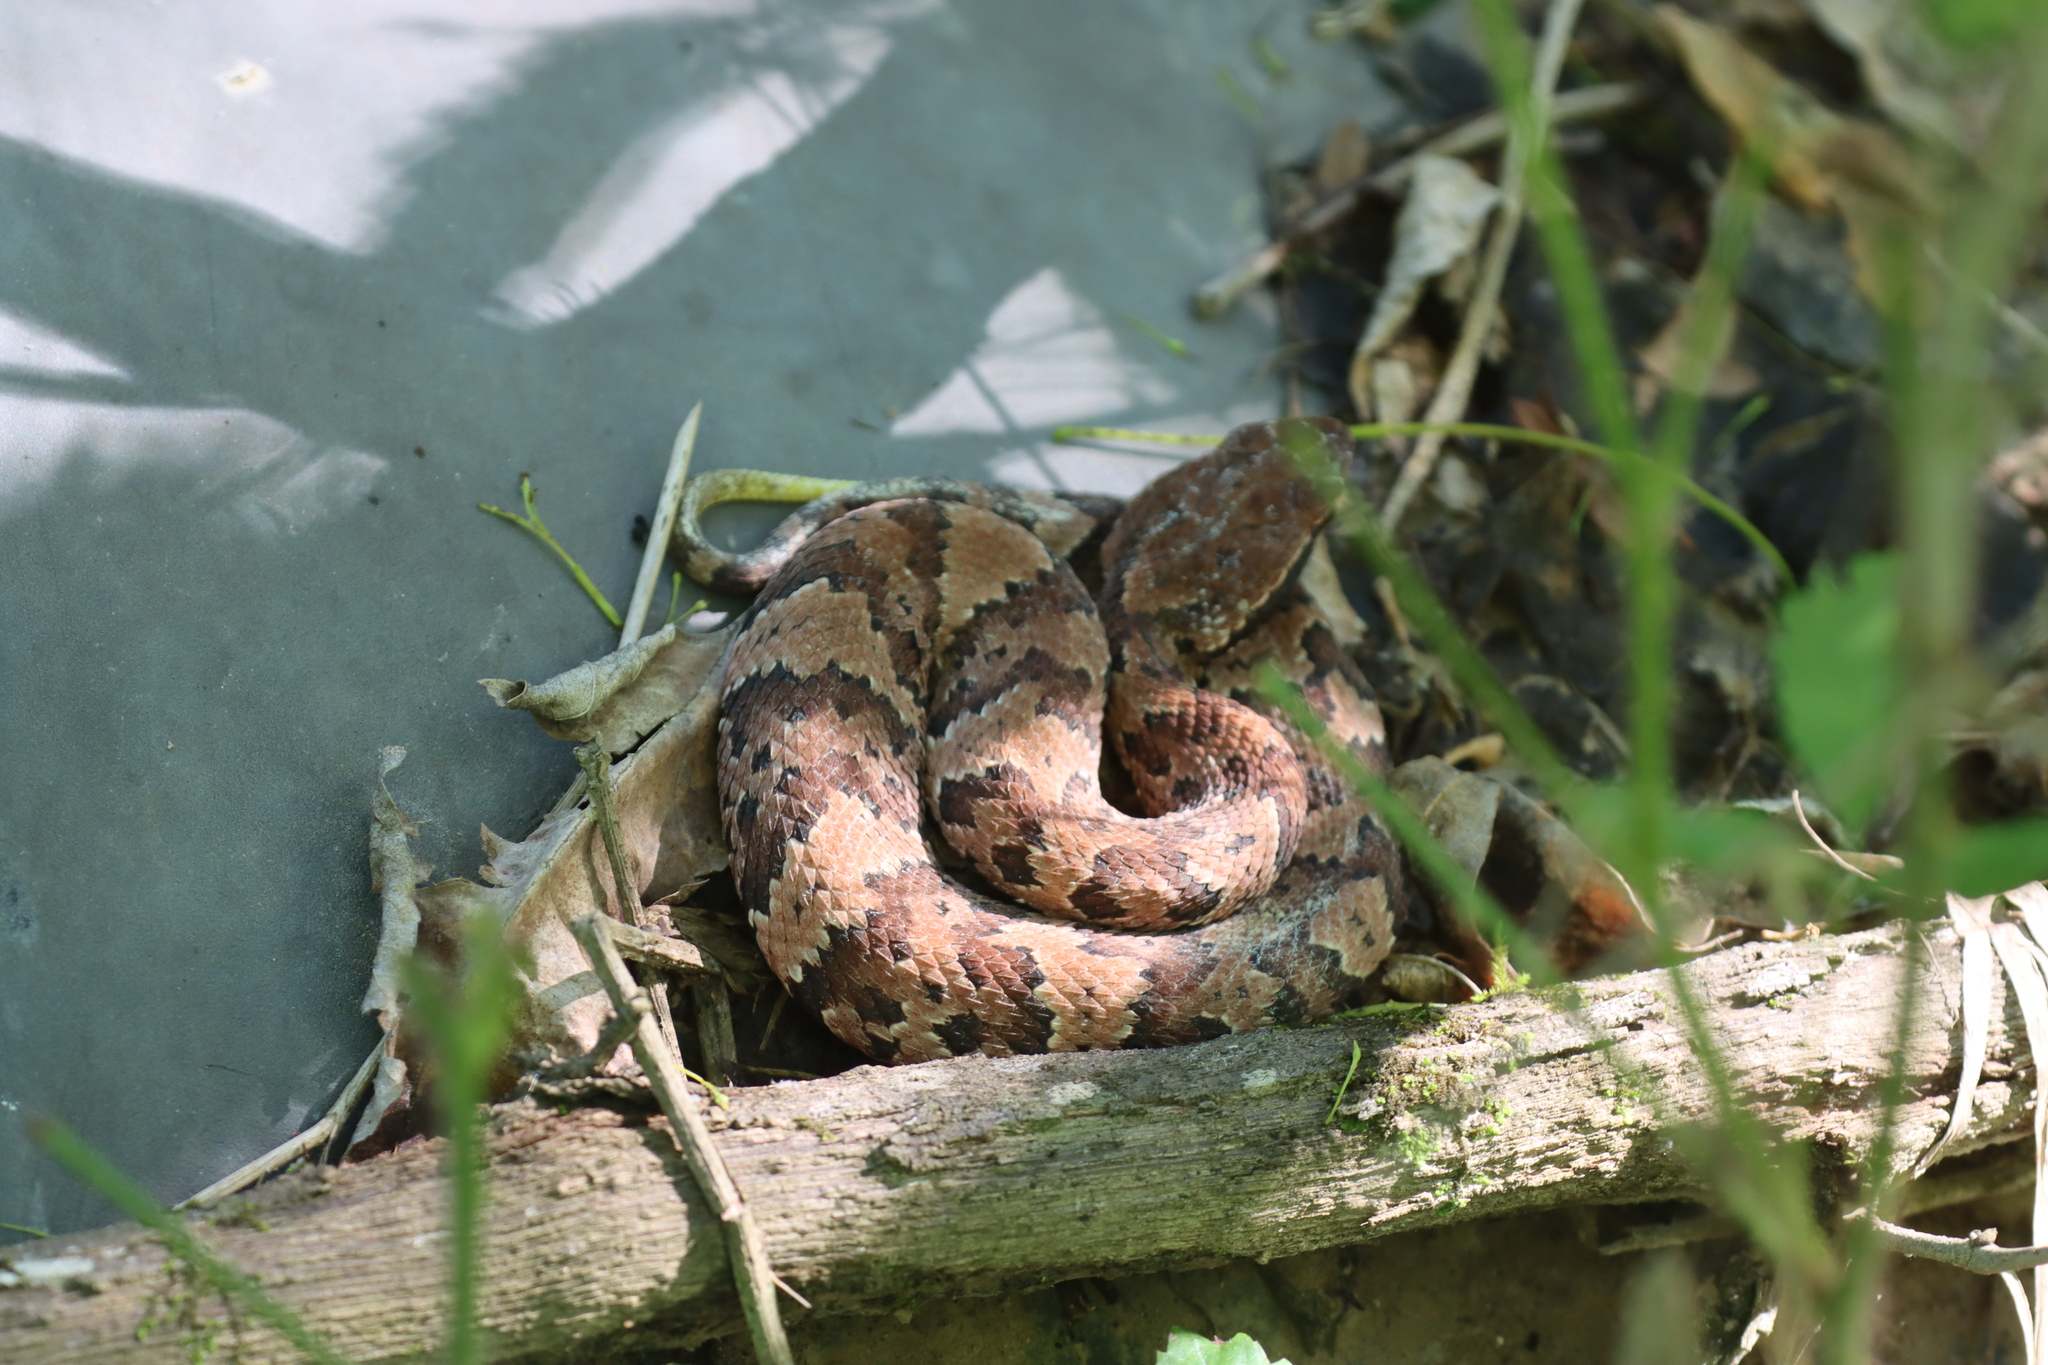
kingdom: Animalia
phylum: Chordata
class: Squamata
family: Viperidae
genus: Agkistrodon
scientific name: Agkistrodon piscivorus
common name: Cottonmouth
